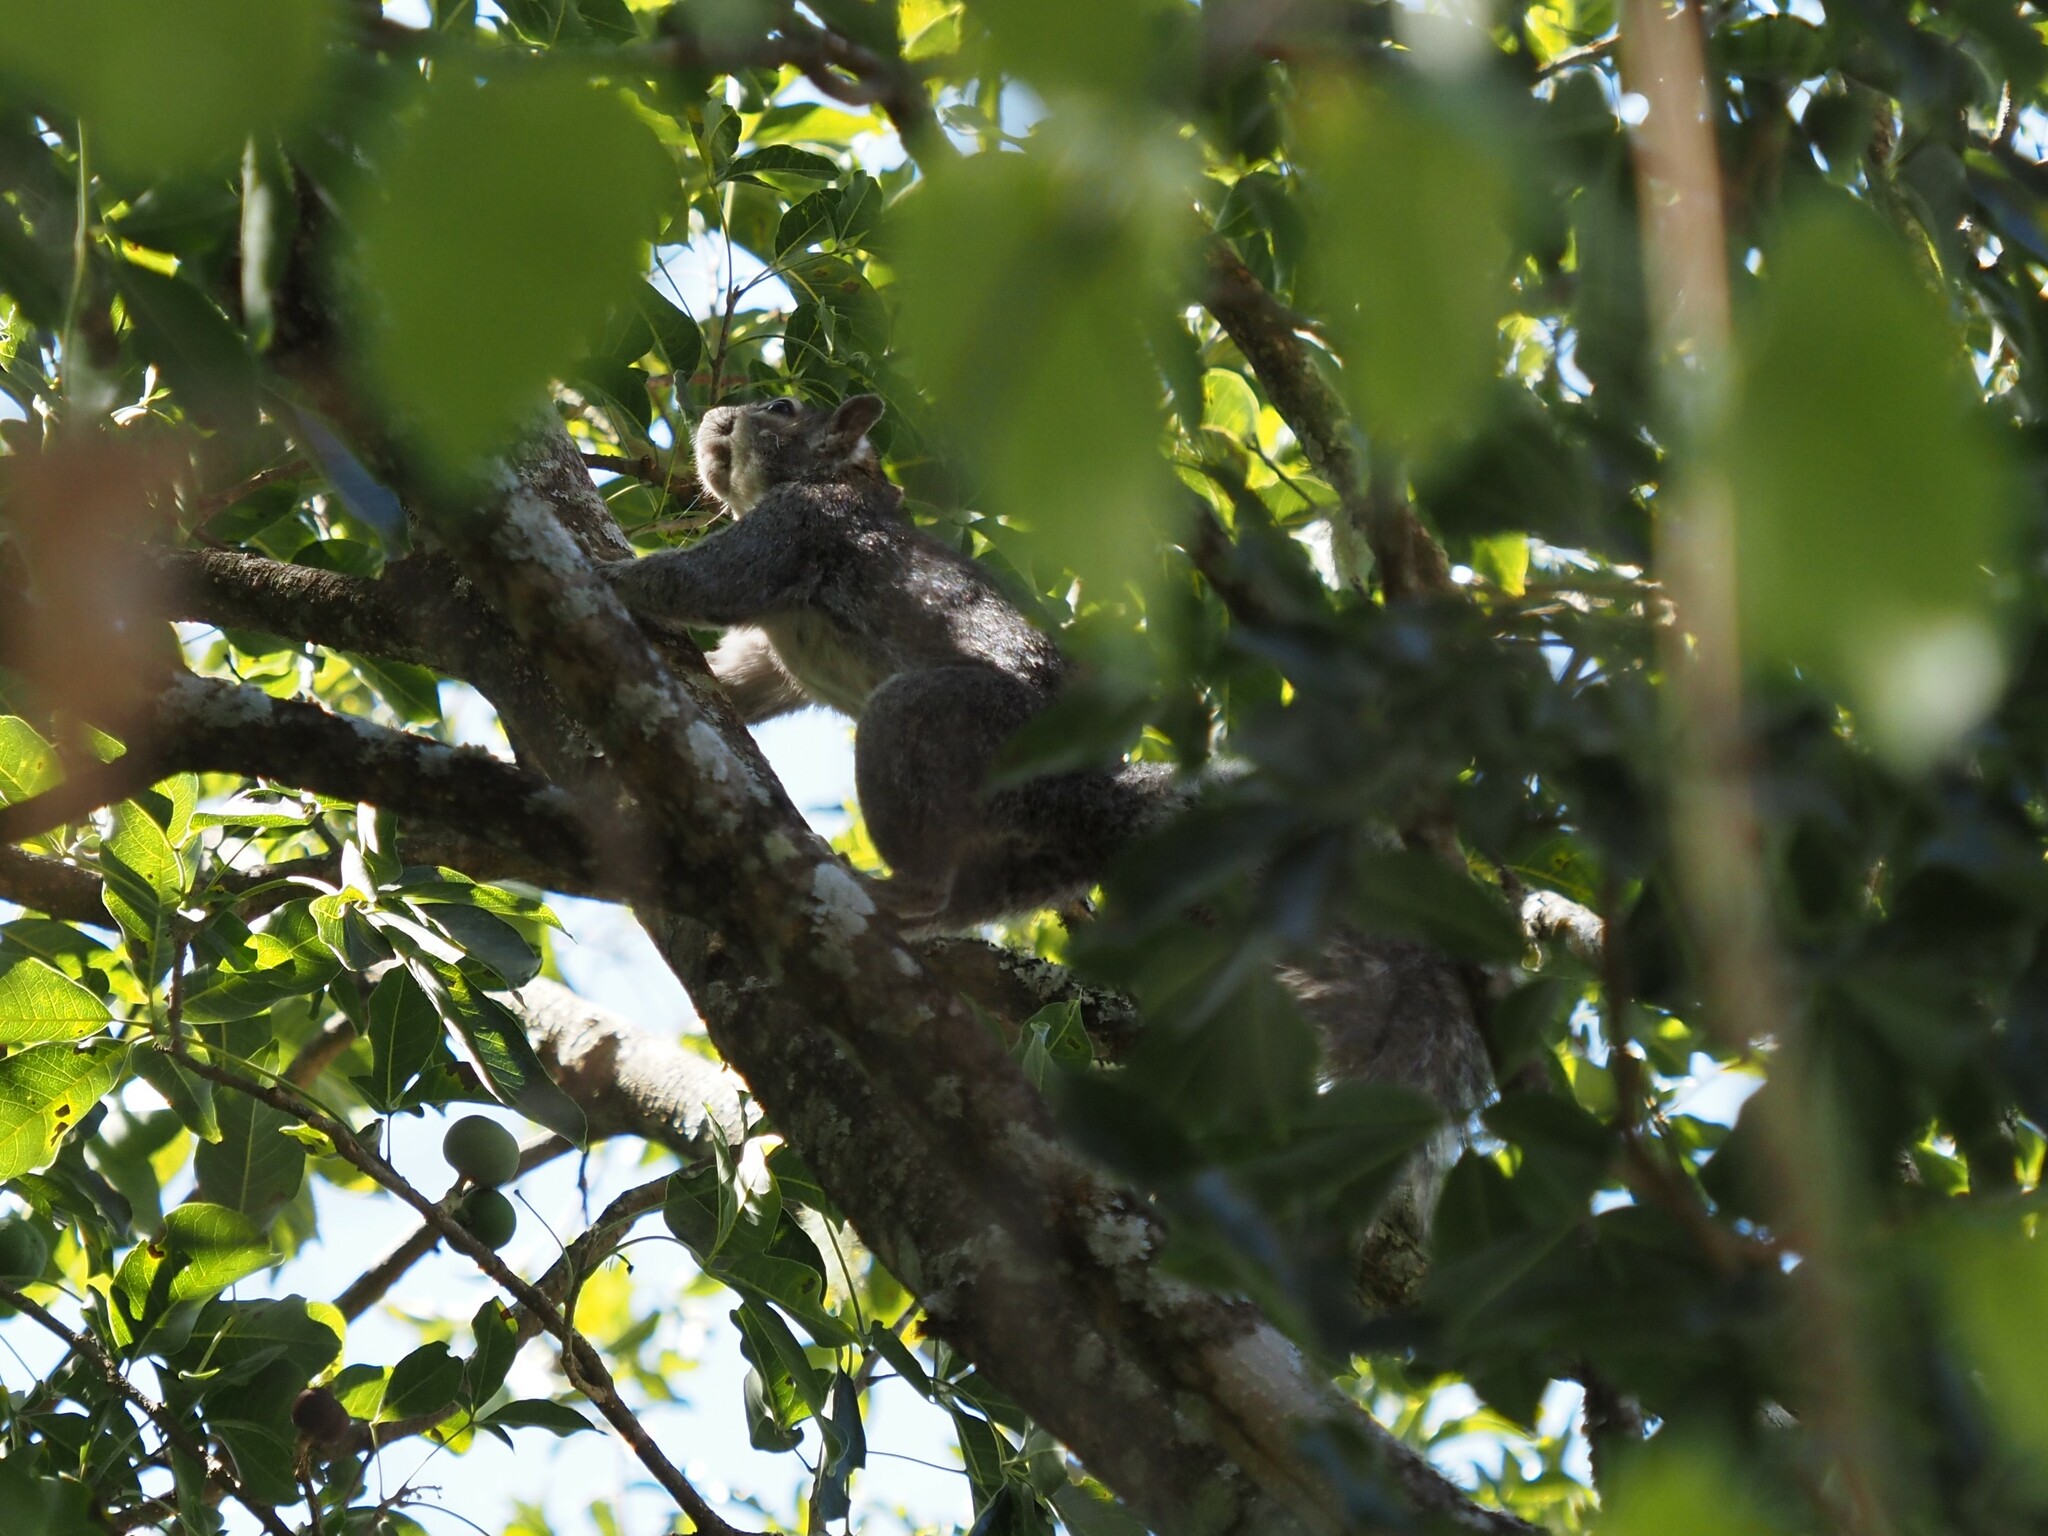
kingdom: Animalia
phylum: Chordata
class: Mammalia
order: Rodentia
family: Sciuridae
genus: Sciurus
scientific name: Sciurus colliaei
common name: Collie's squirrel
